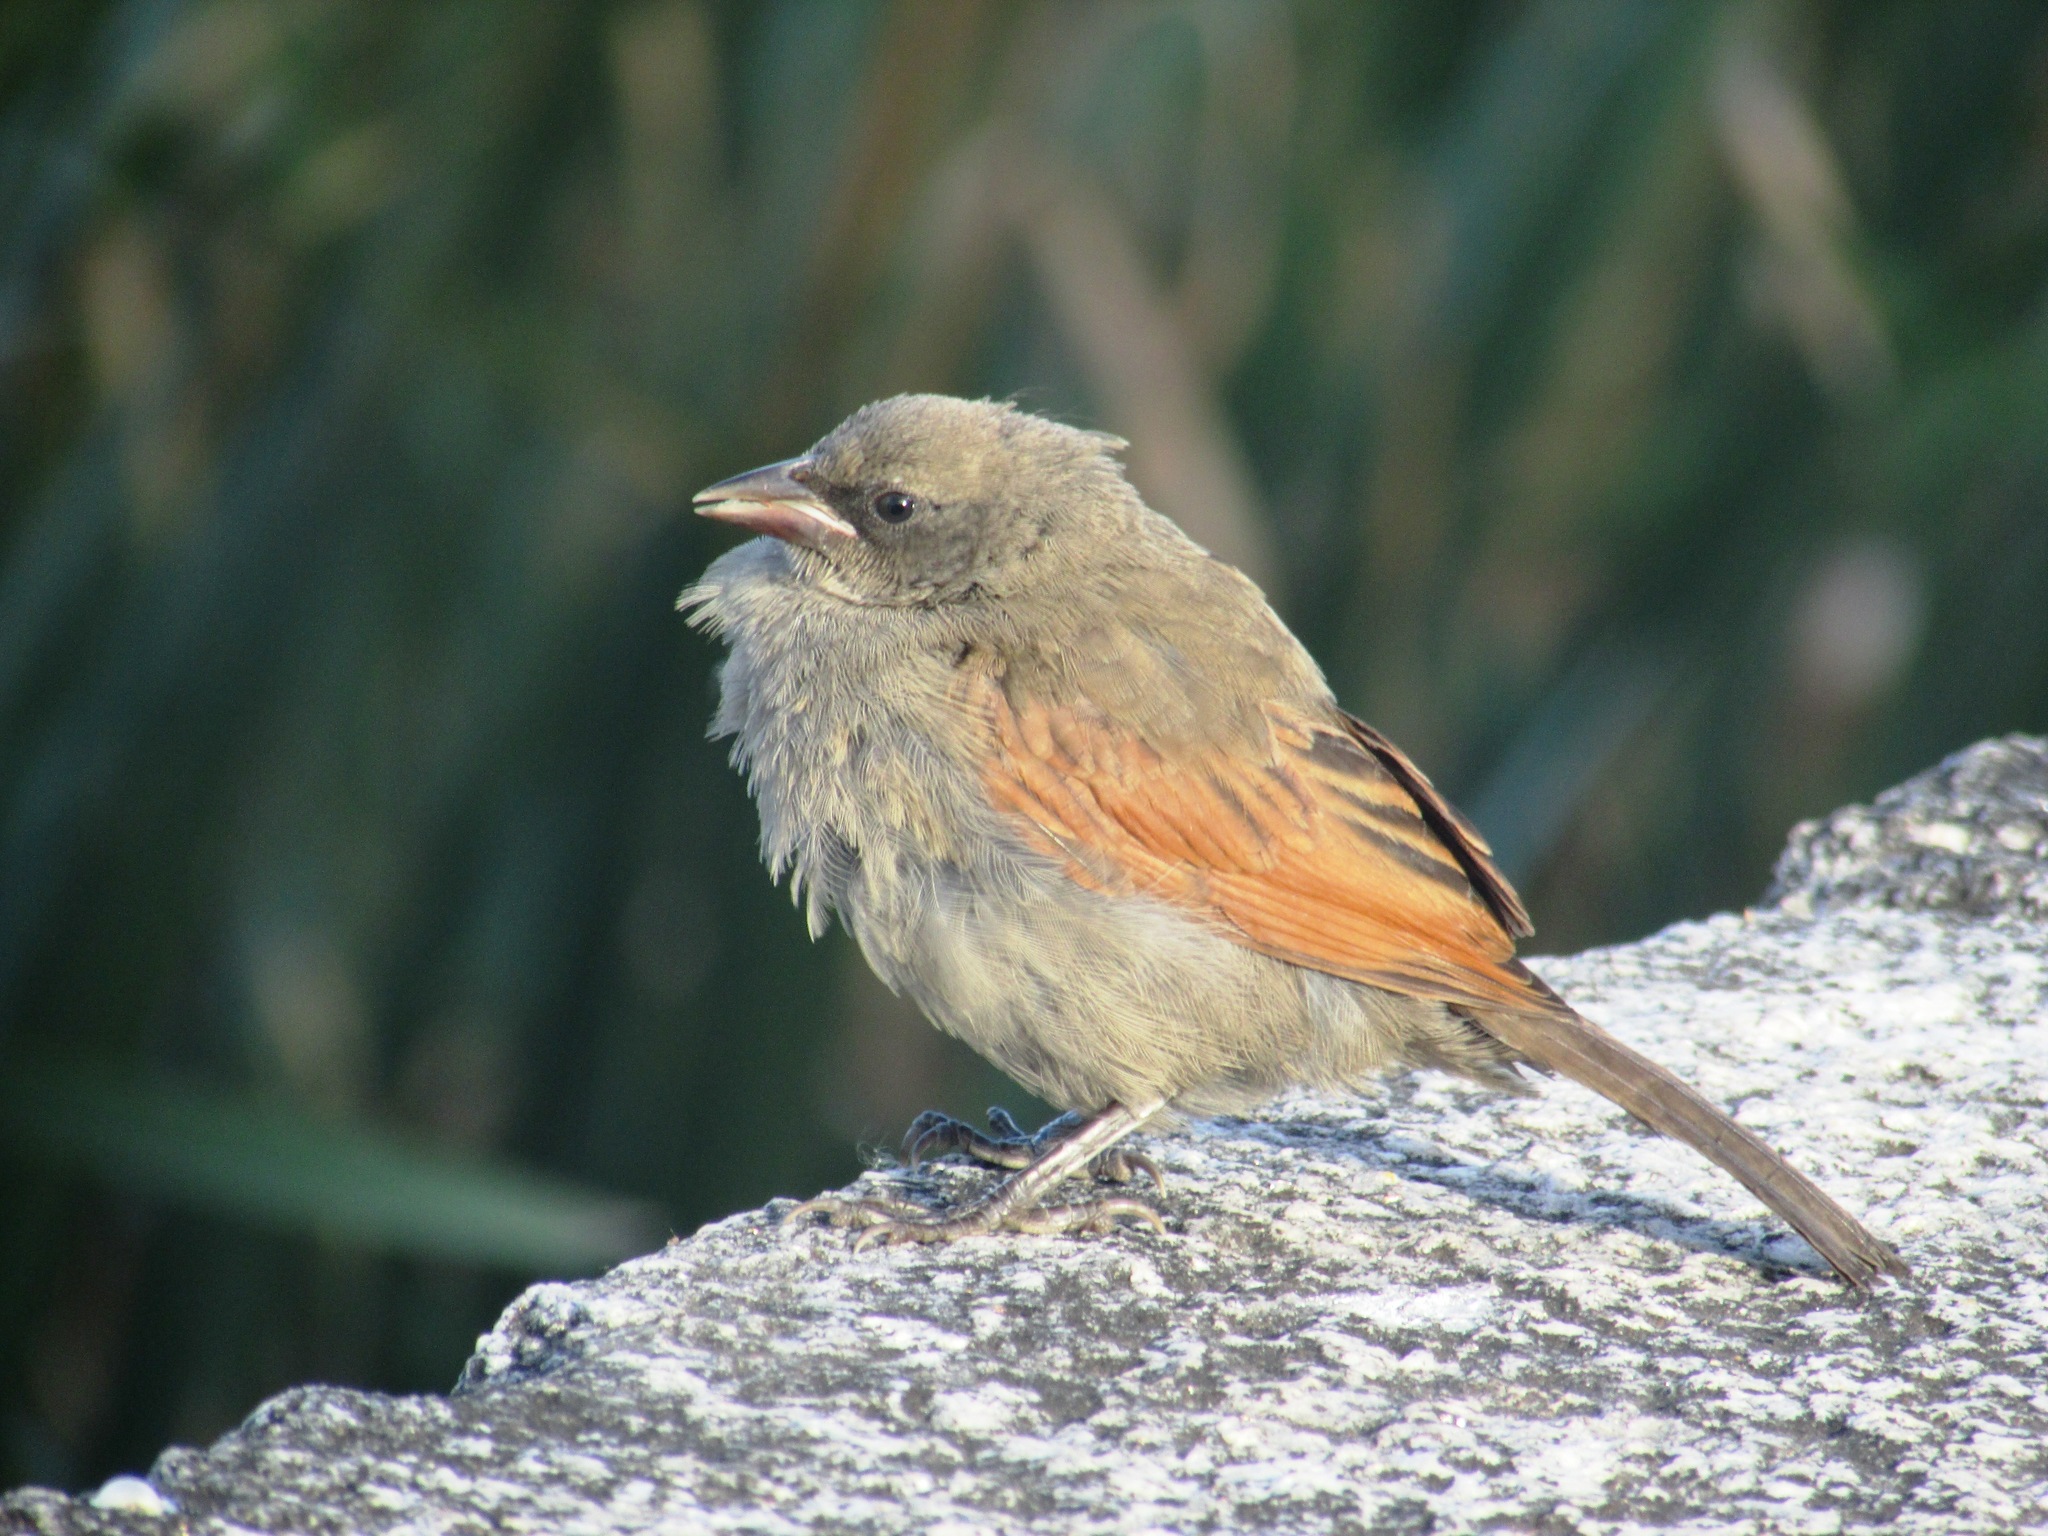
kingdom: Animalia
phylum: Chordata
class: Aves
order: Passeriformes
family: Icteridae
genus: Agelaioides
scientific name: Agelaioides badius
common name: Baywing
